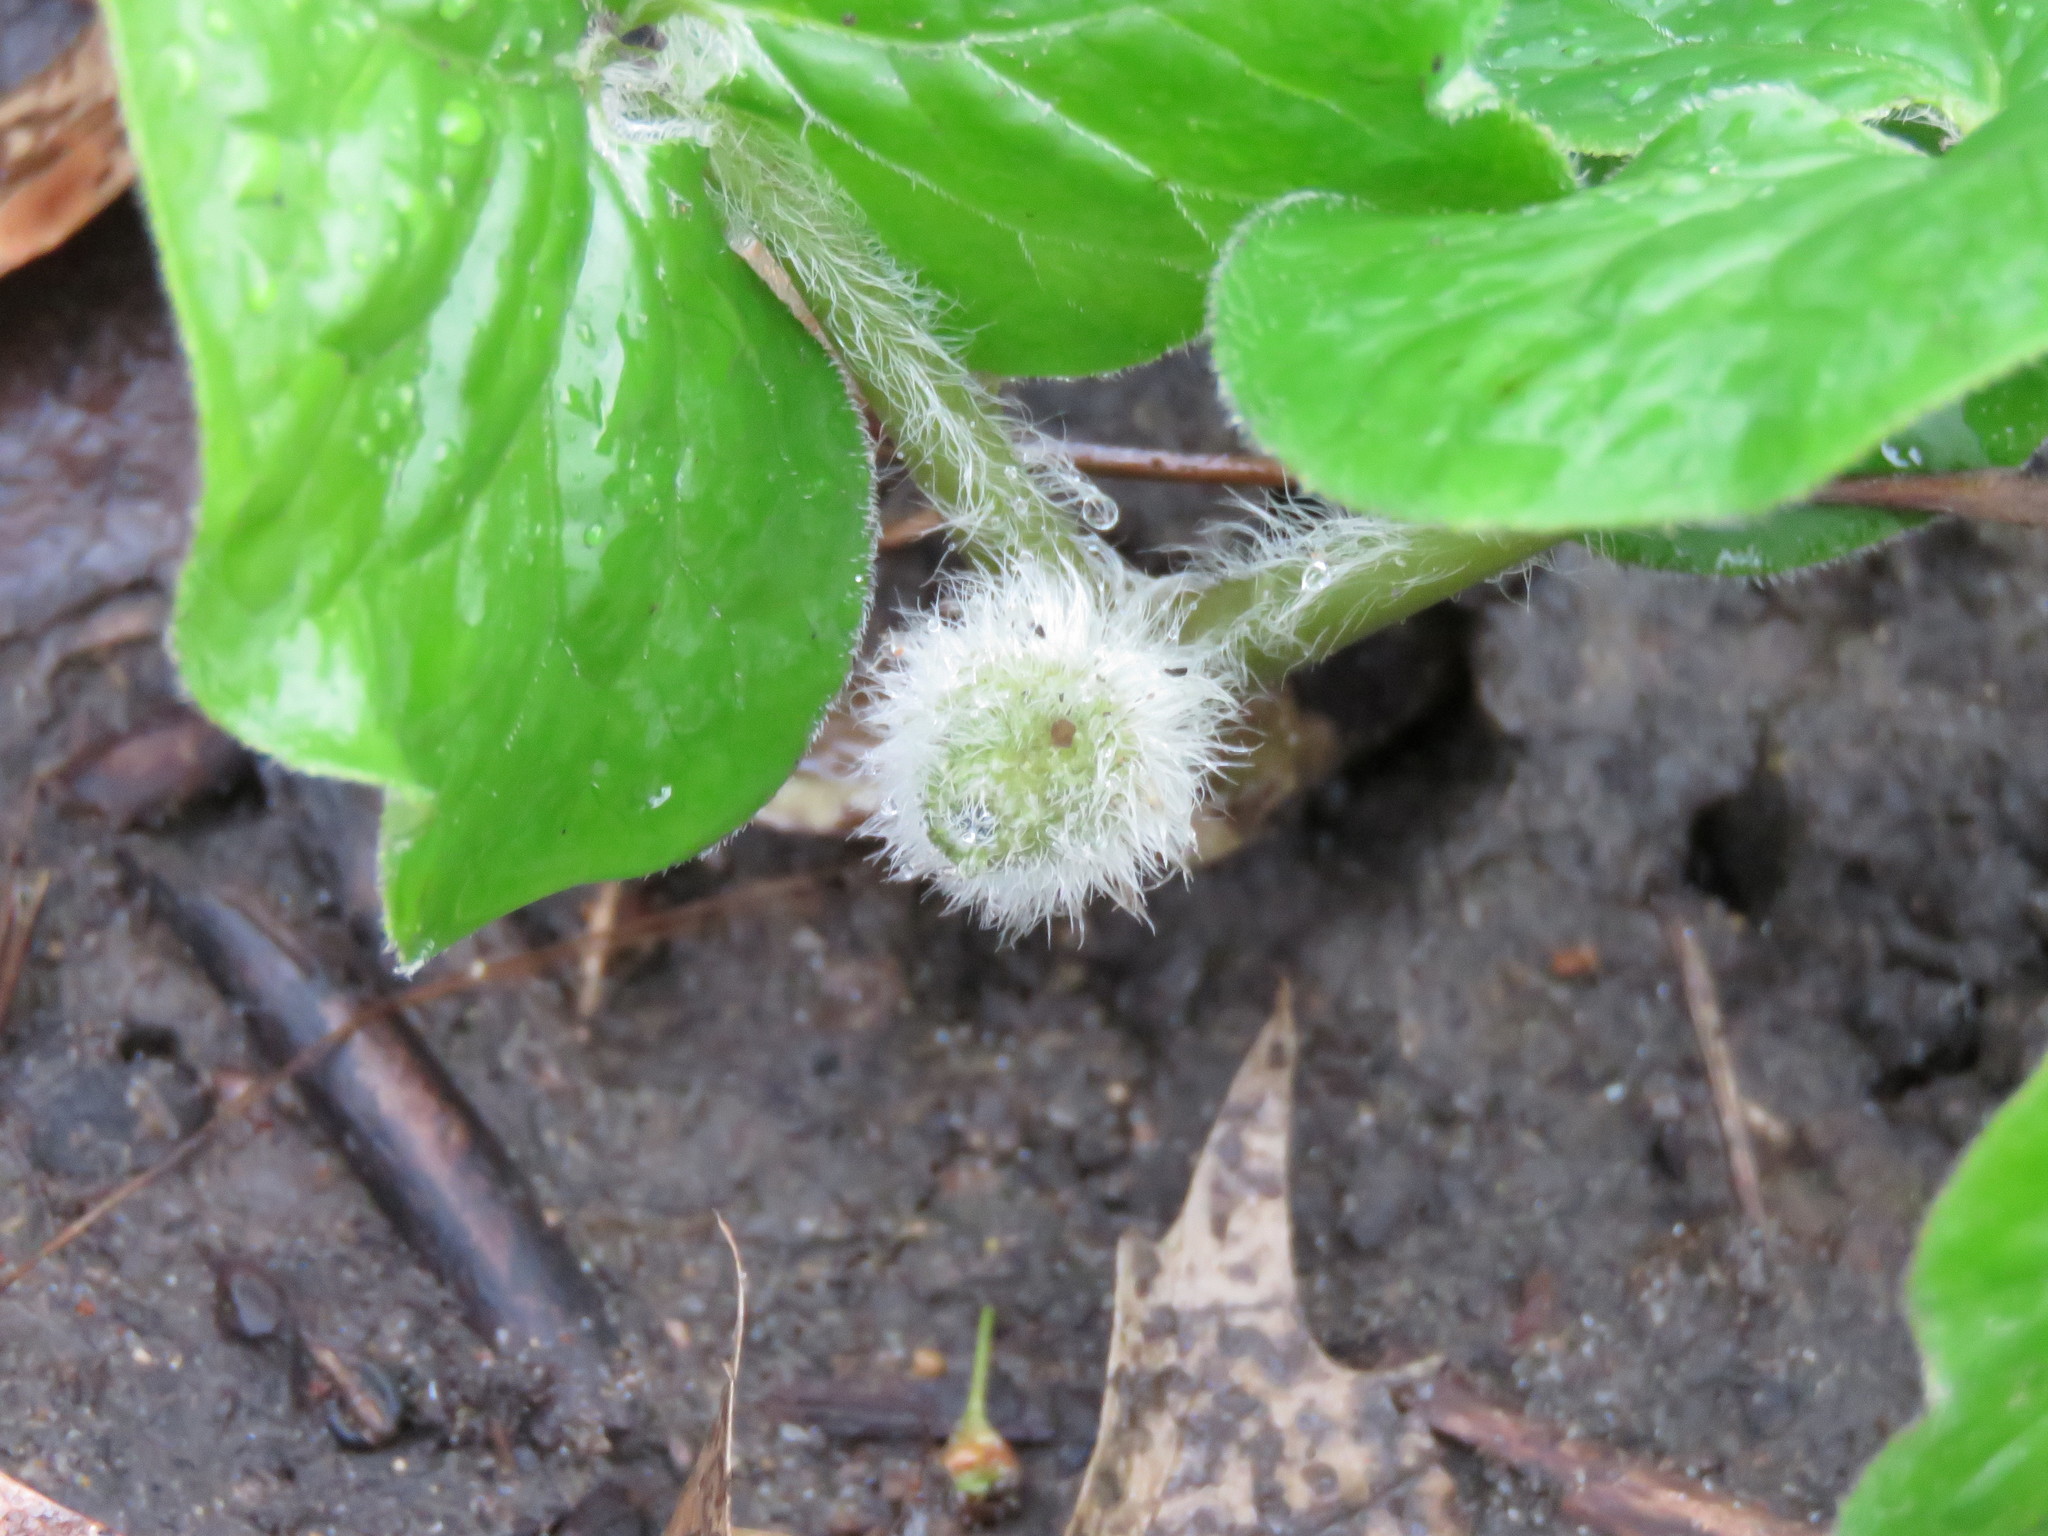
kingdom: Plantae
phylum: Tracheophyta
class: Magnoliopsida
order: Piperales
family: Aristolochiaceae
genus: Asarum
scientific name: Asarum canadense
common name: Wild ginger
